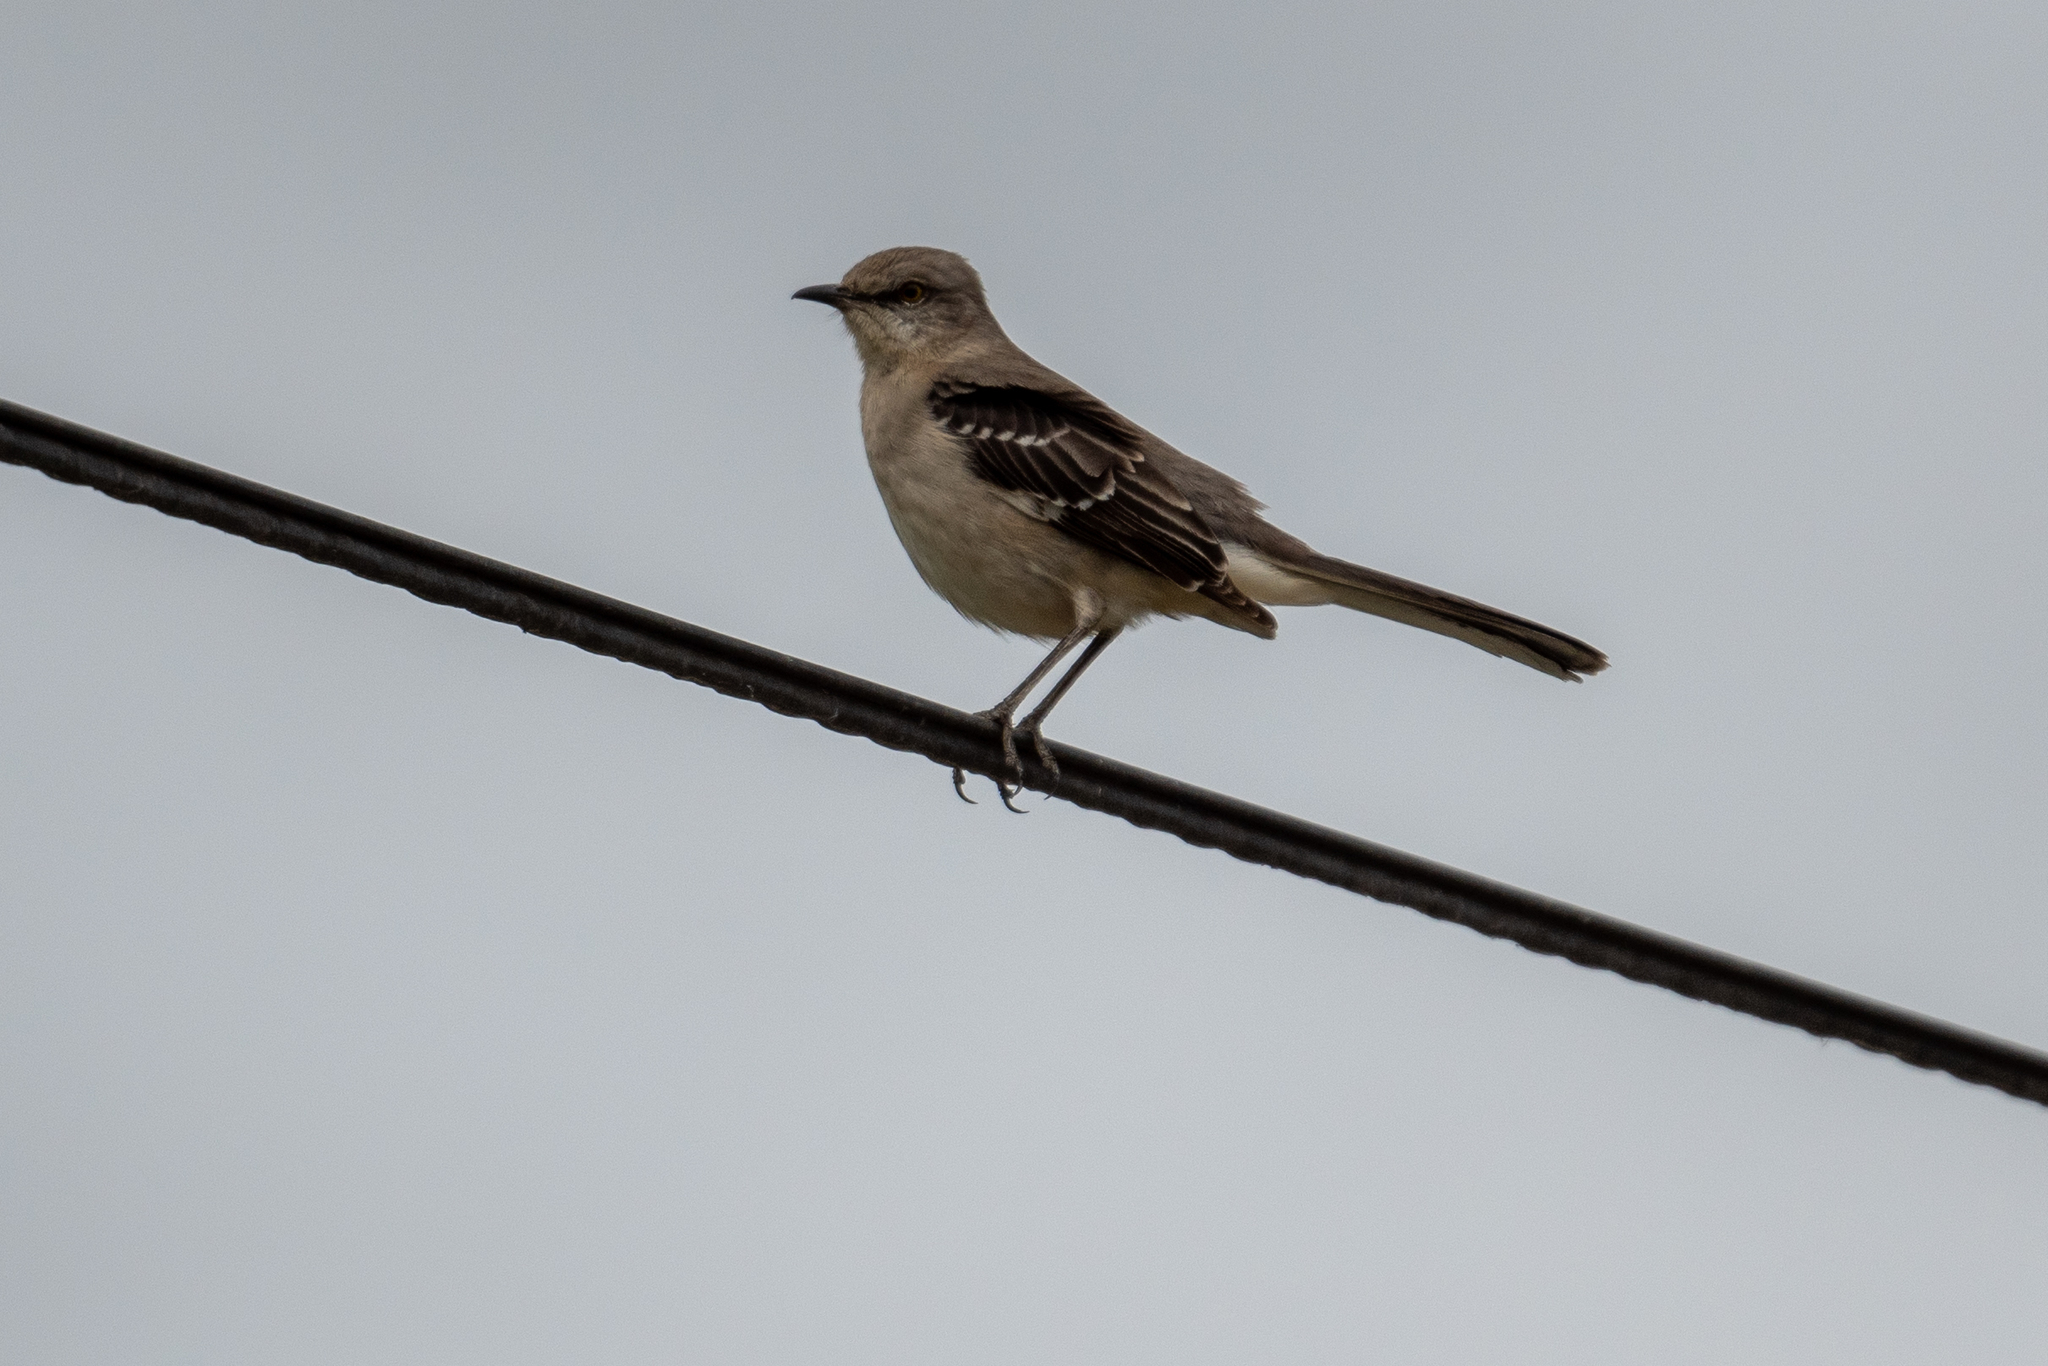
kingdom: Animalia
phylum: Chordata
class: Aves
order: Passeriformes
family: Mimidae
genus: Mimus
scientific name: Mimus polyglottos
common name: Northern mockingbird
